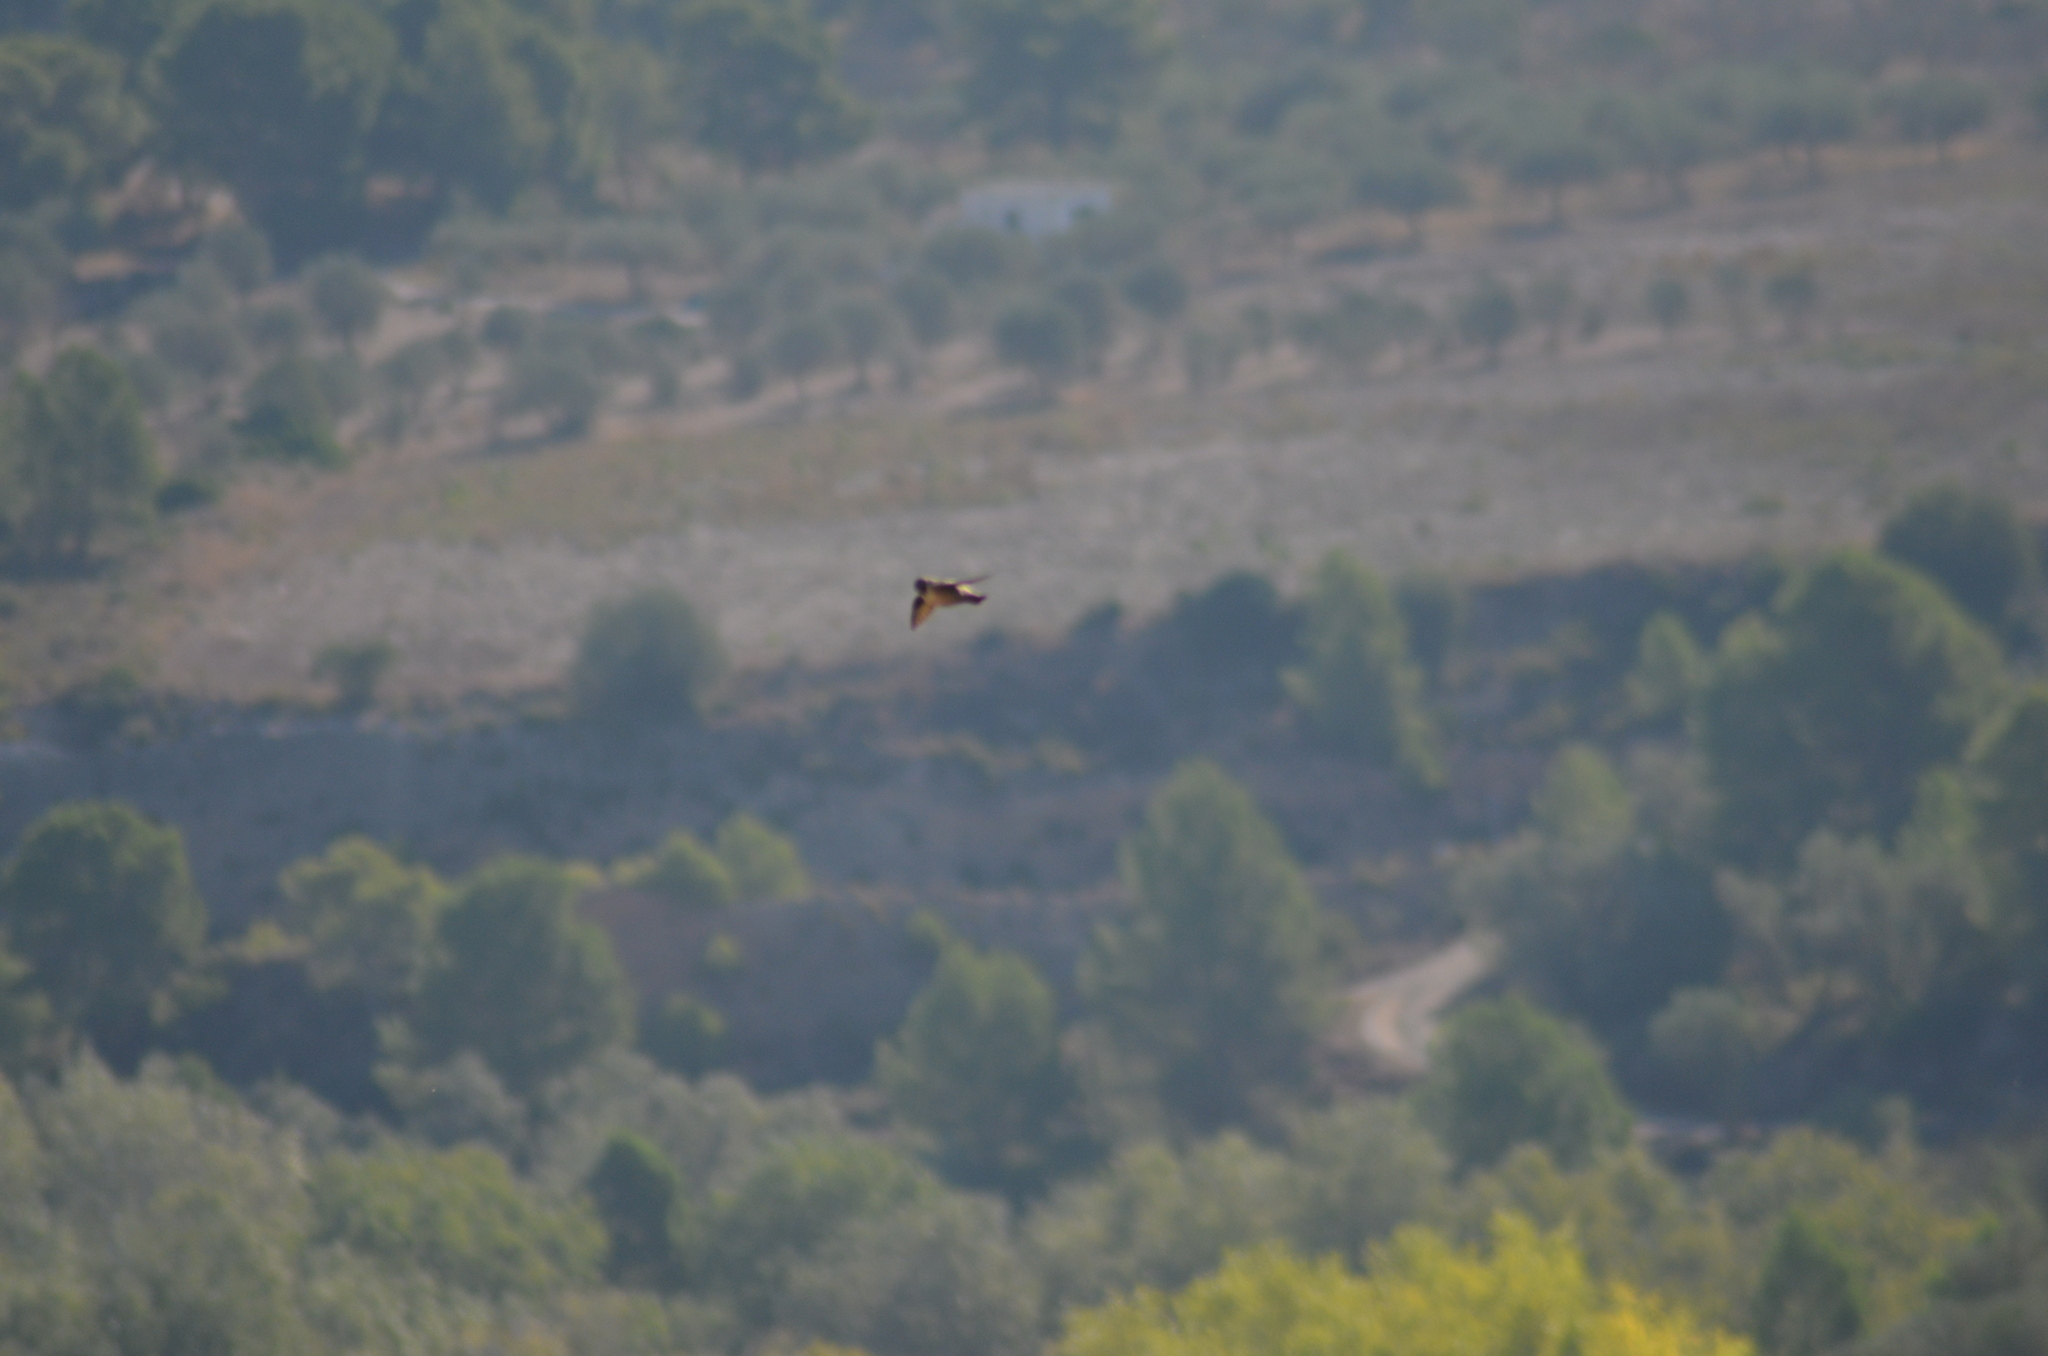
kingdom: Animalia
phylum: Chordata
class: Aves
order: Passeriformes
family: Hirundinidae
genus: Ptyonoprogne
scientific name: Ptyonoprogne rupestris
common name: Eurasian crag martin
